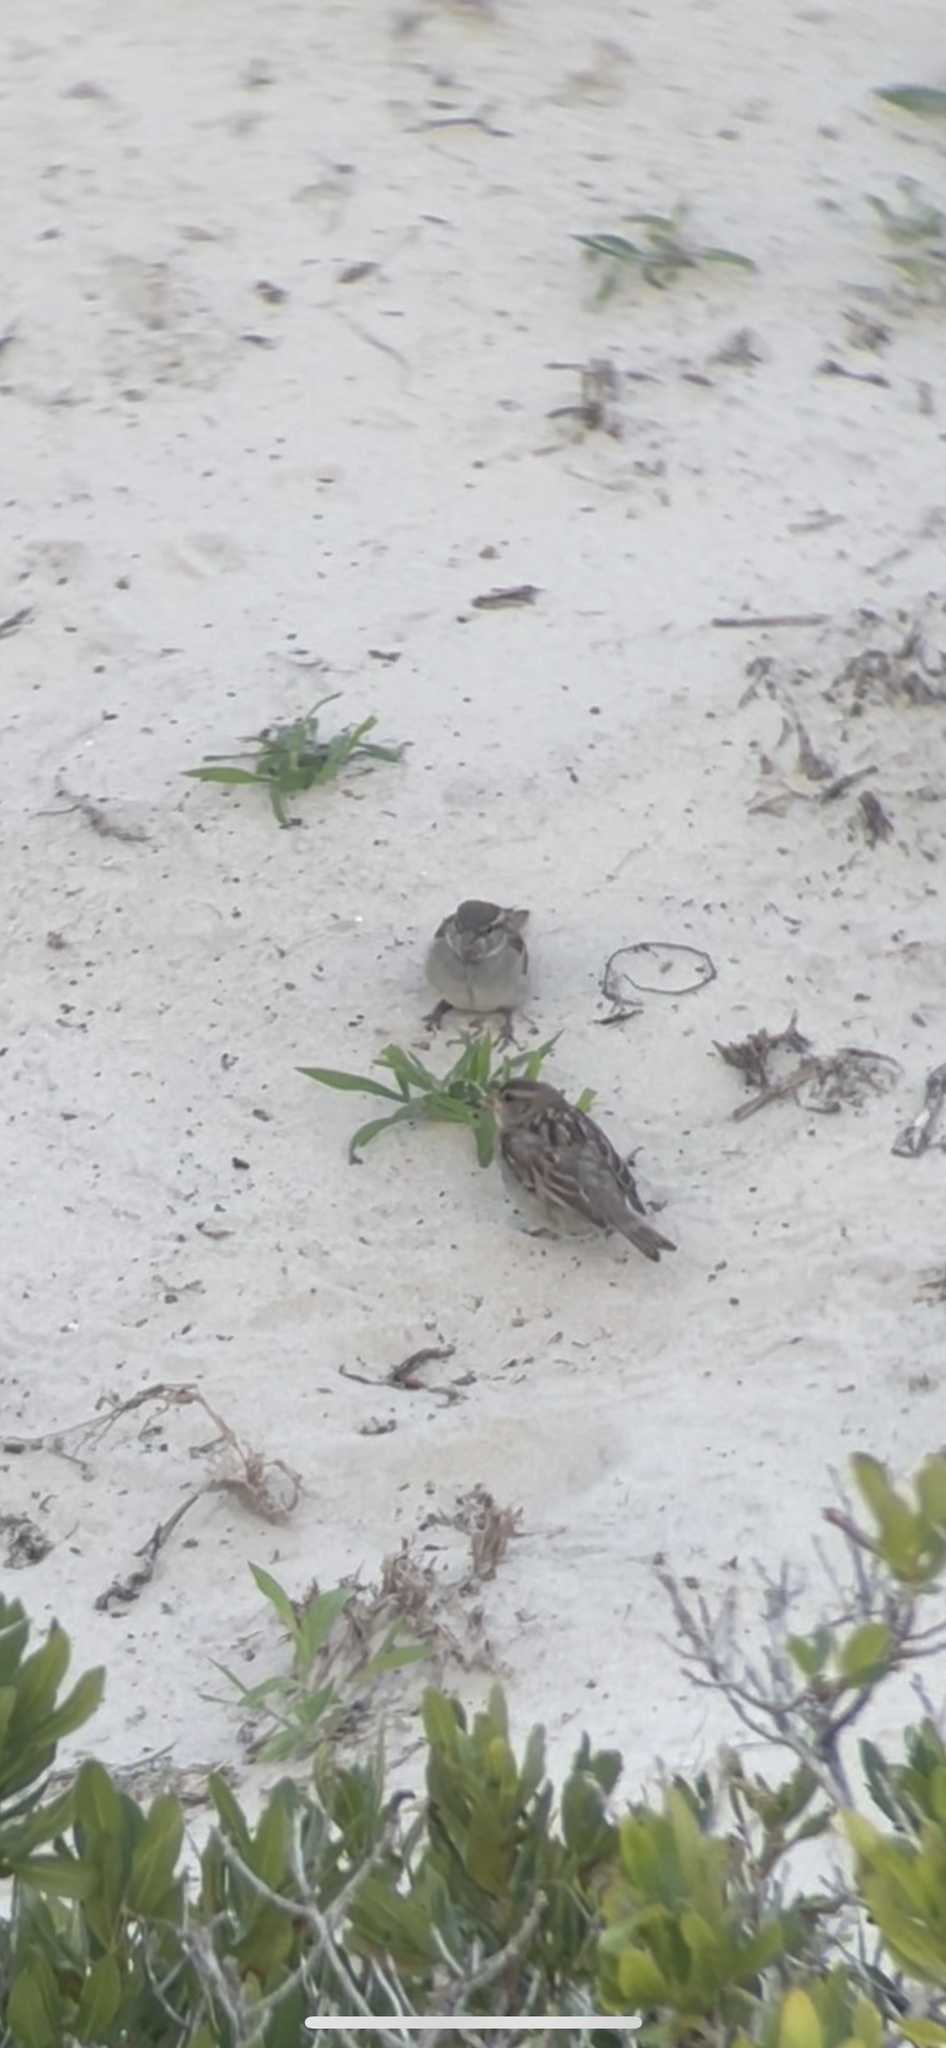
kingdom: Animalia
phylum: Chordata
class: Aves
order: Passeriformes
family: Passeridae
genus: Passer
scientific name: Passer domesticus
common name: House sparrow
